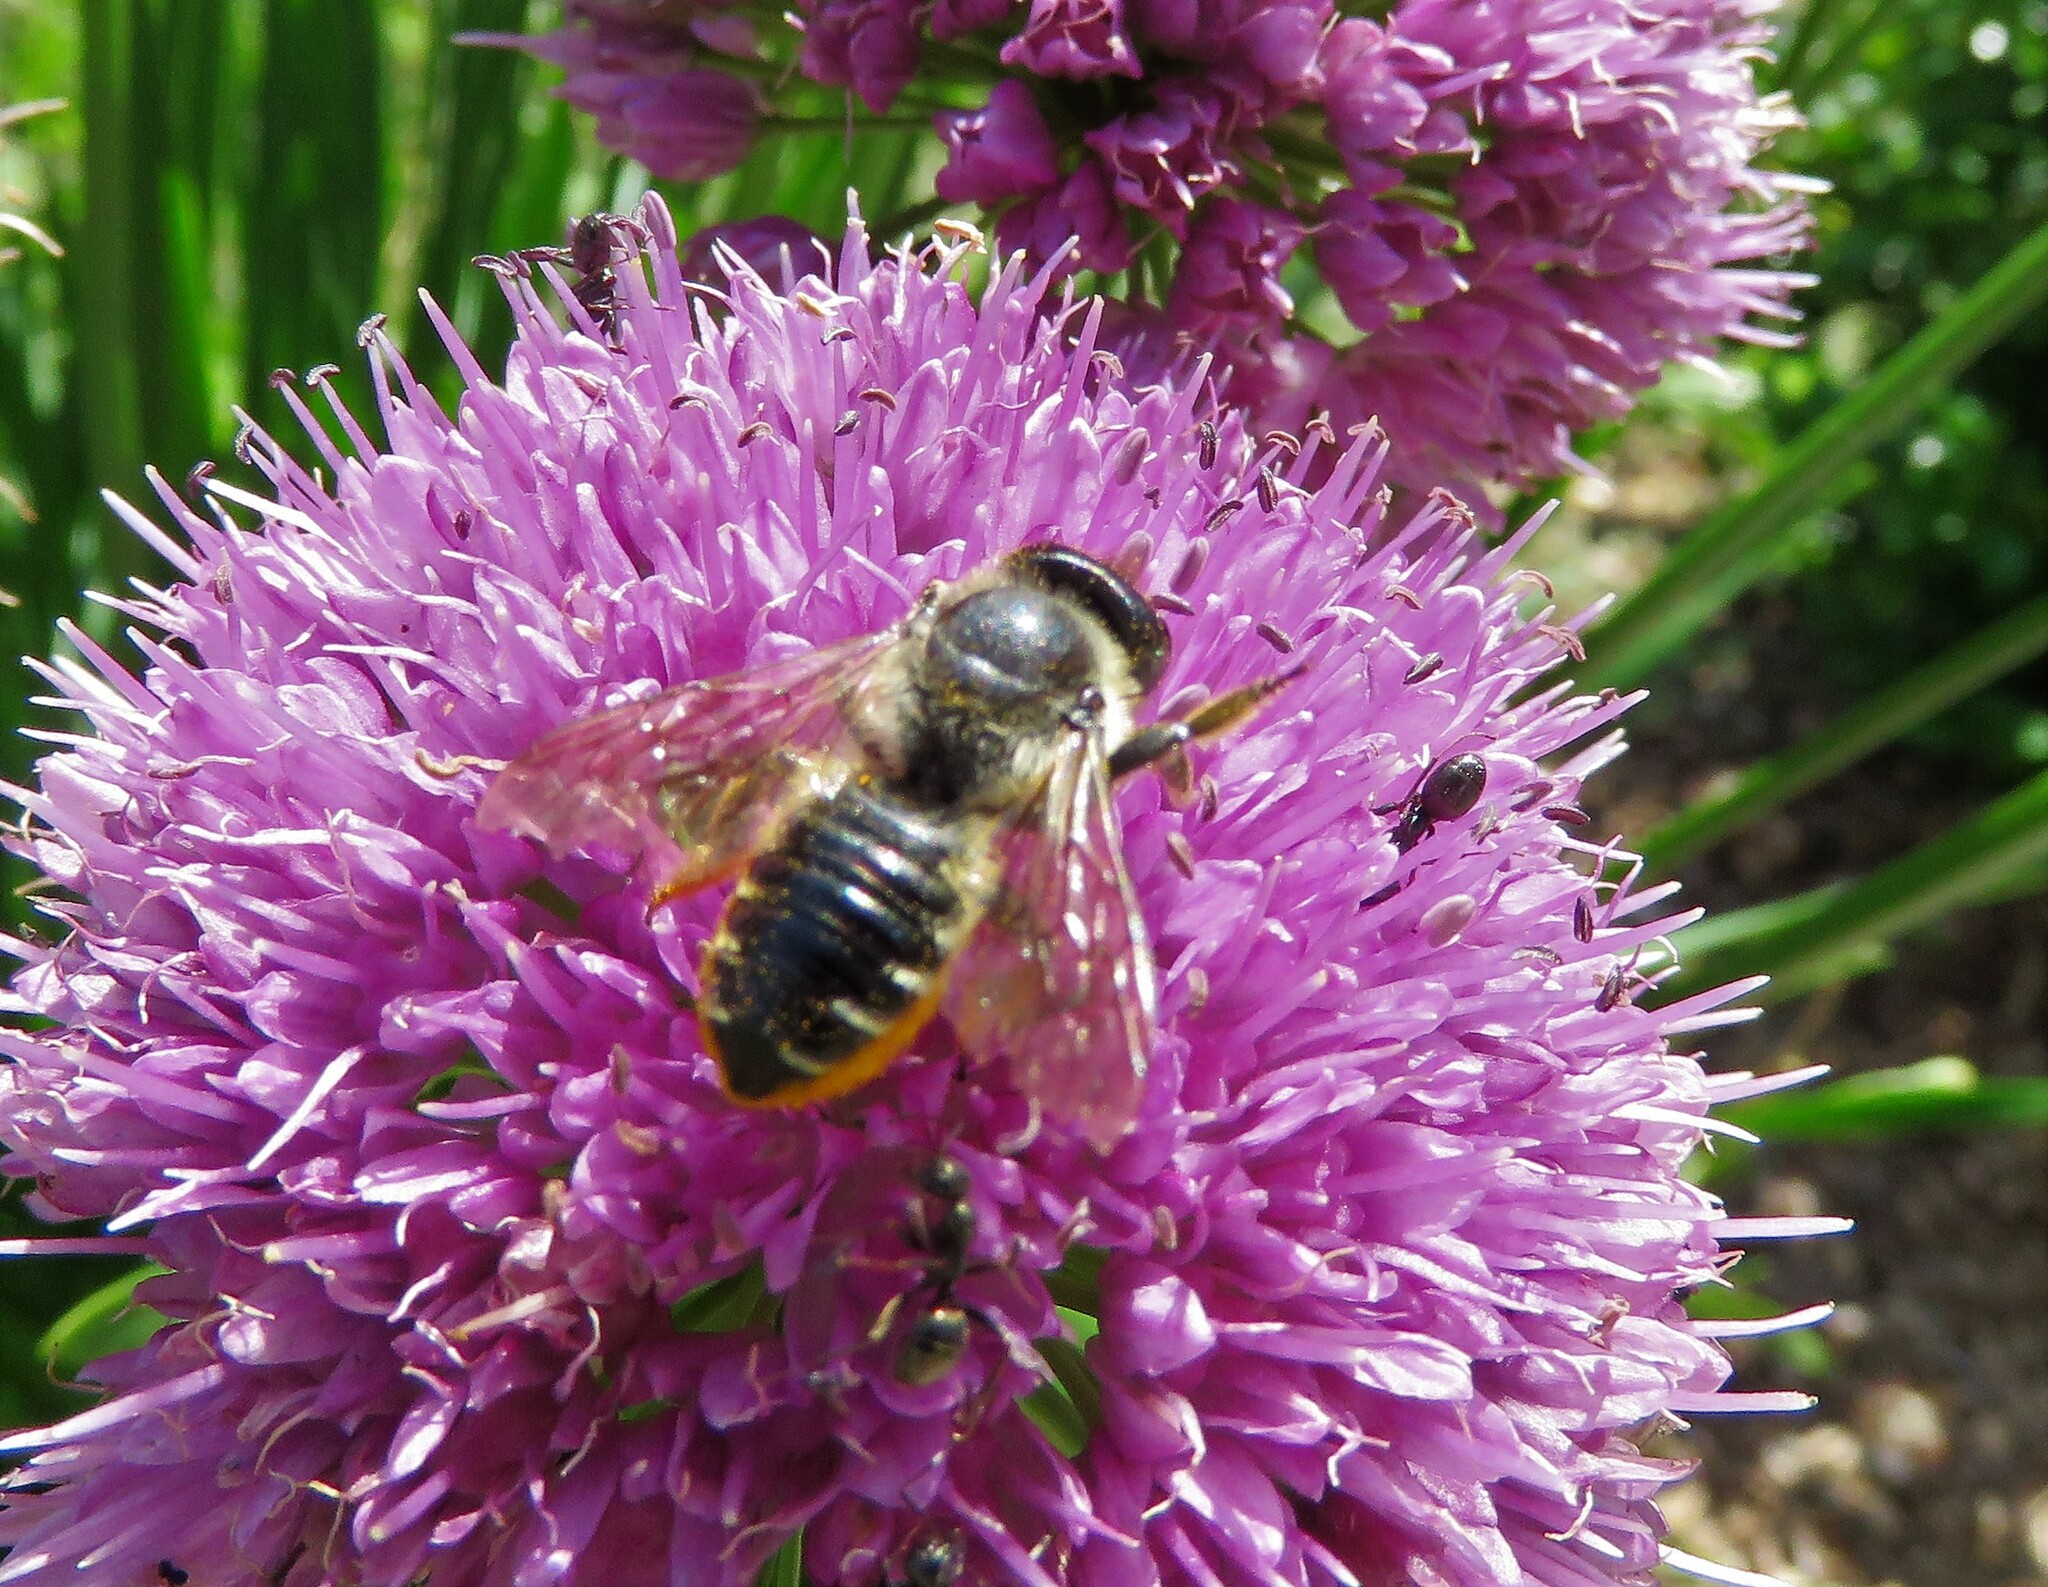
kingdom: Animalia
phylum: Arthropoda
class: Insecta
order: Hymenoptera
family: Megachilidae
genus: Megachile
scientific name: Megachile inermis
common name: Unarmed leafcutter bee
